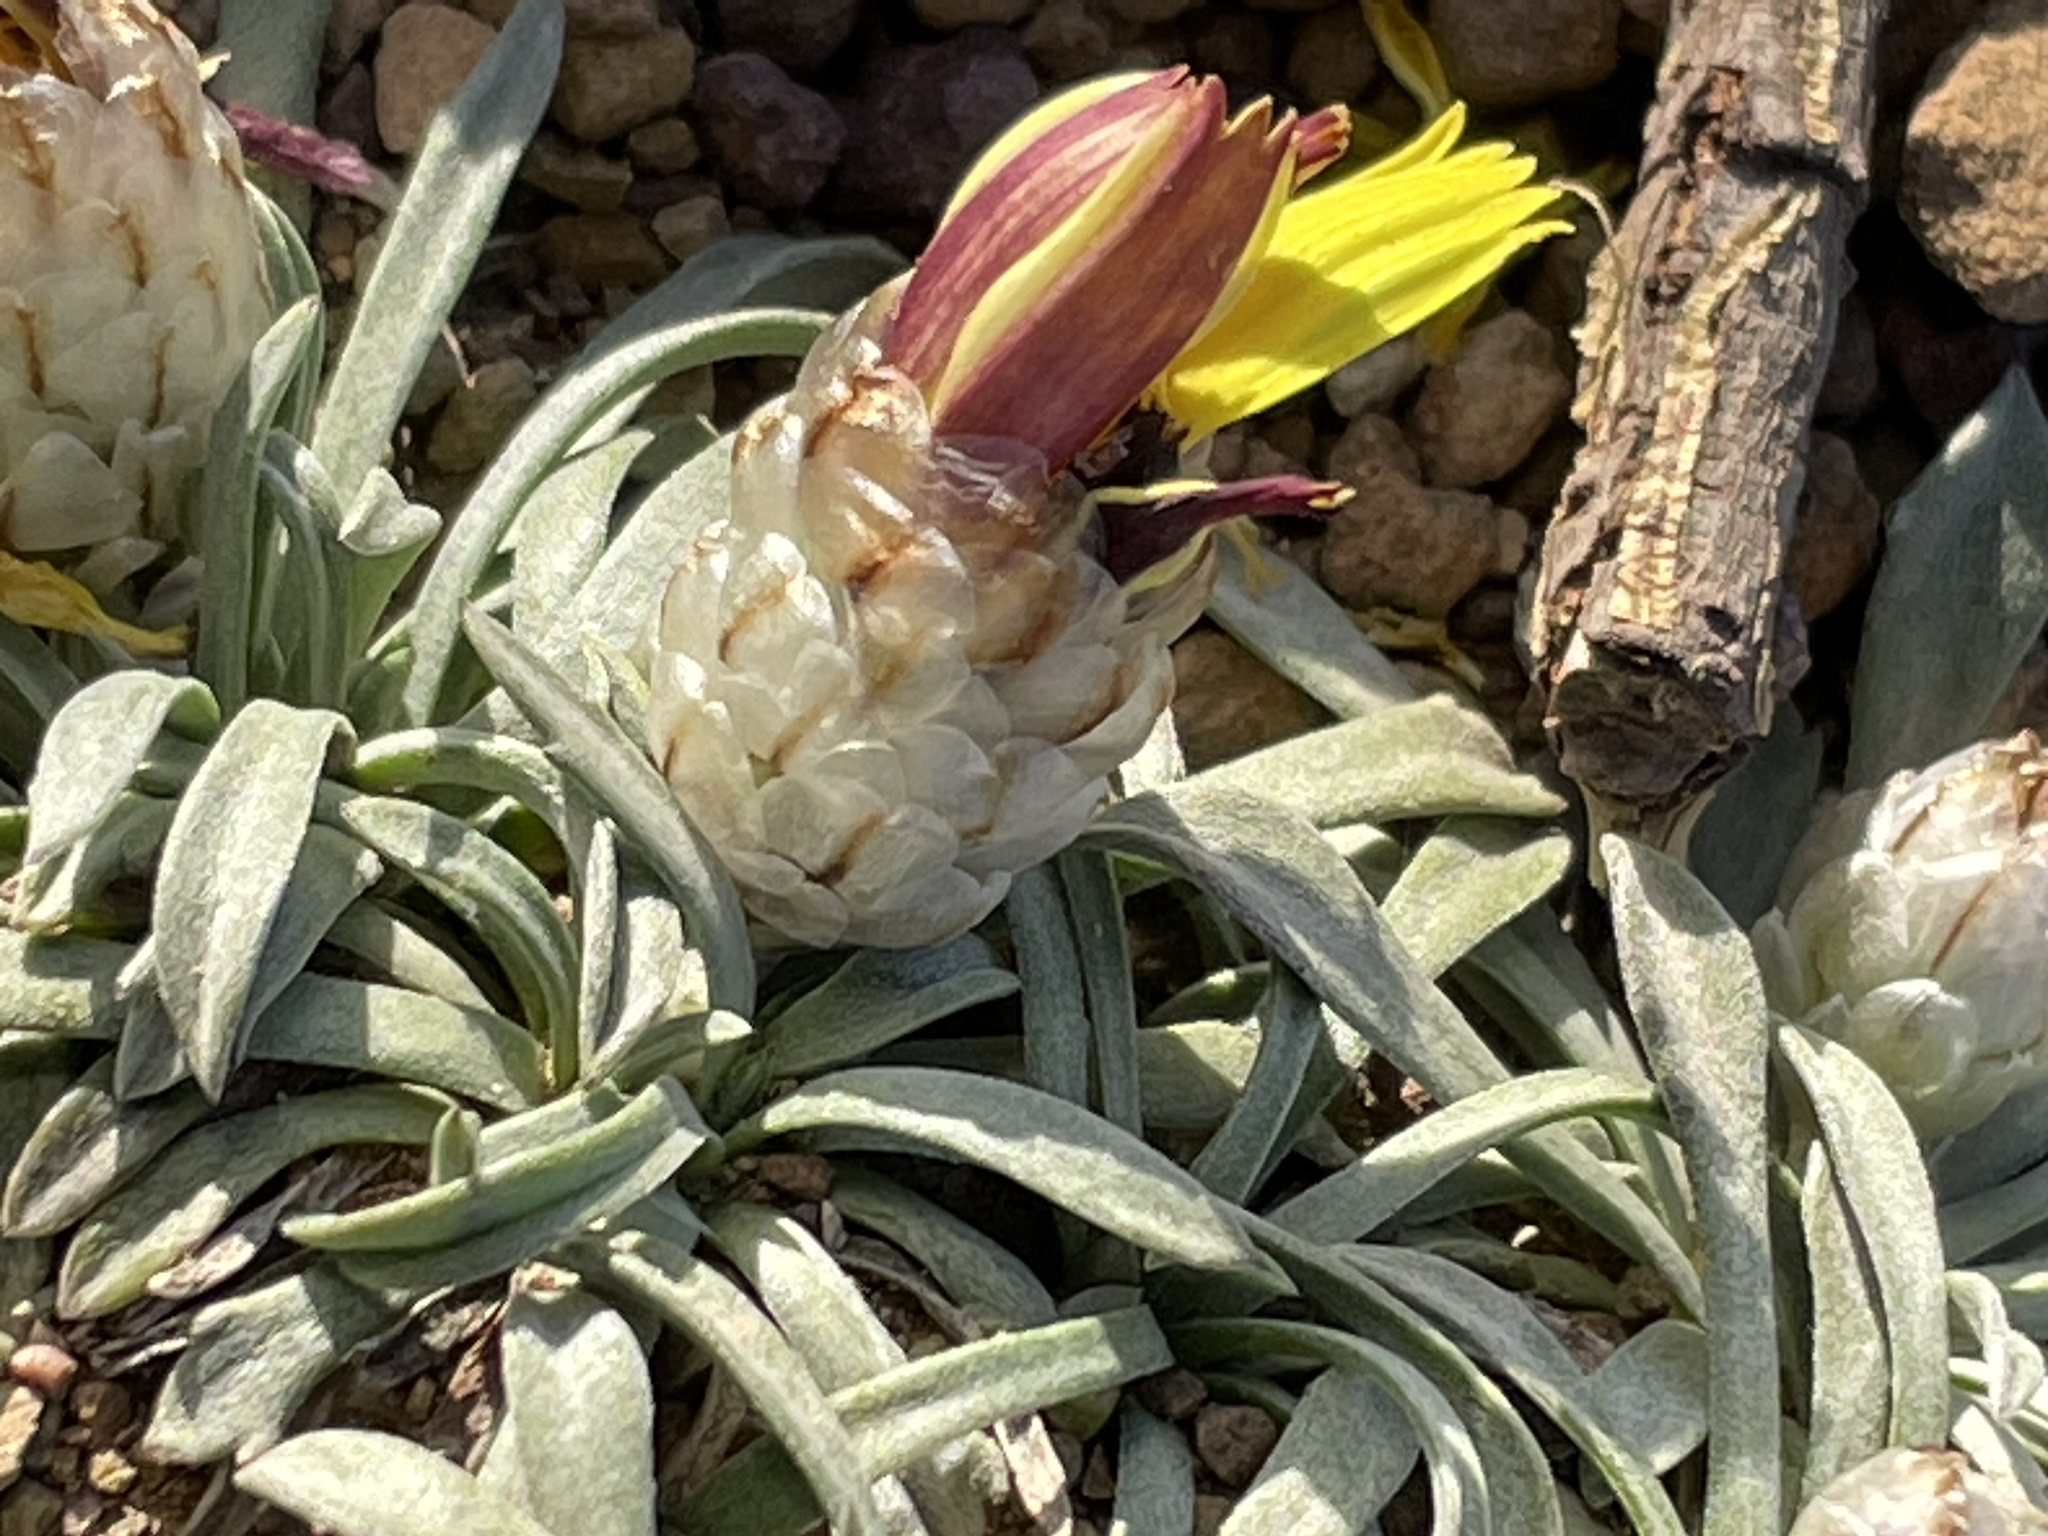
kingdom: Plantae
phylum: Tracheophyta
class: Magnoliopsida
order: Asterales
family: Asteraceae
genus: Catananche
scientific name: Catananche caespitosa
